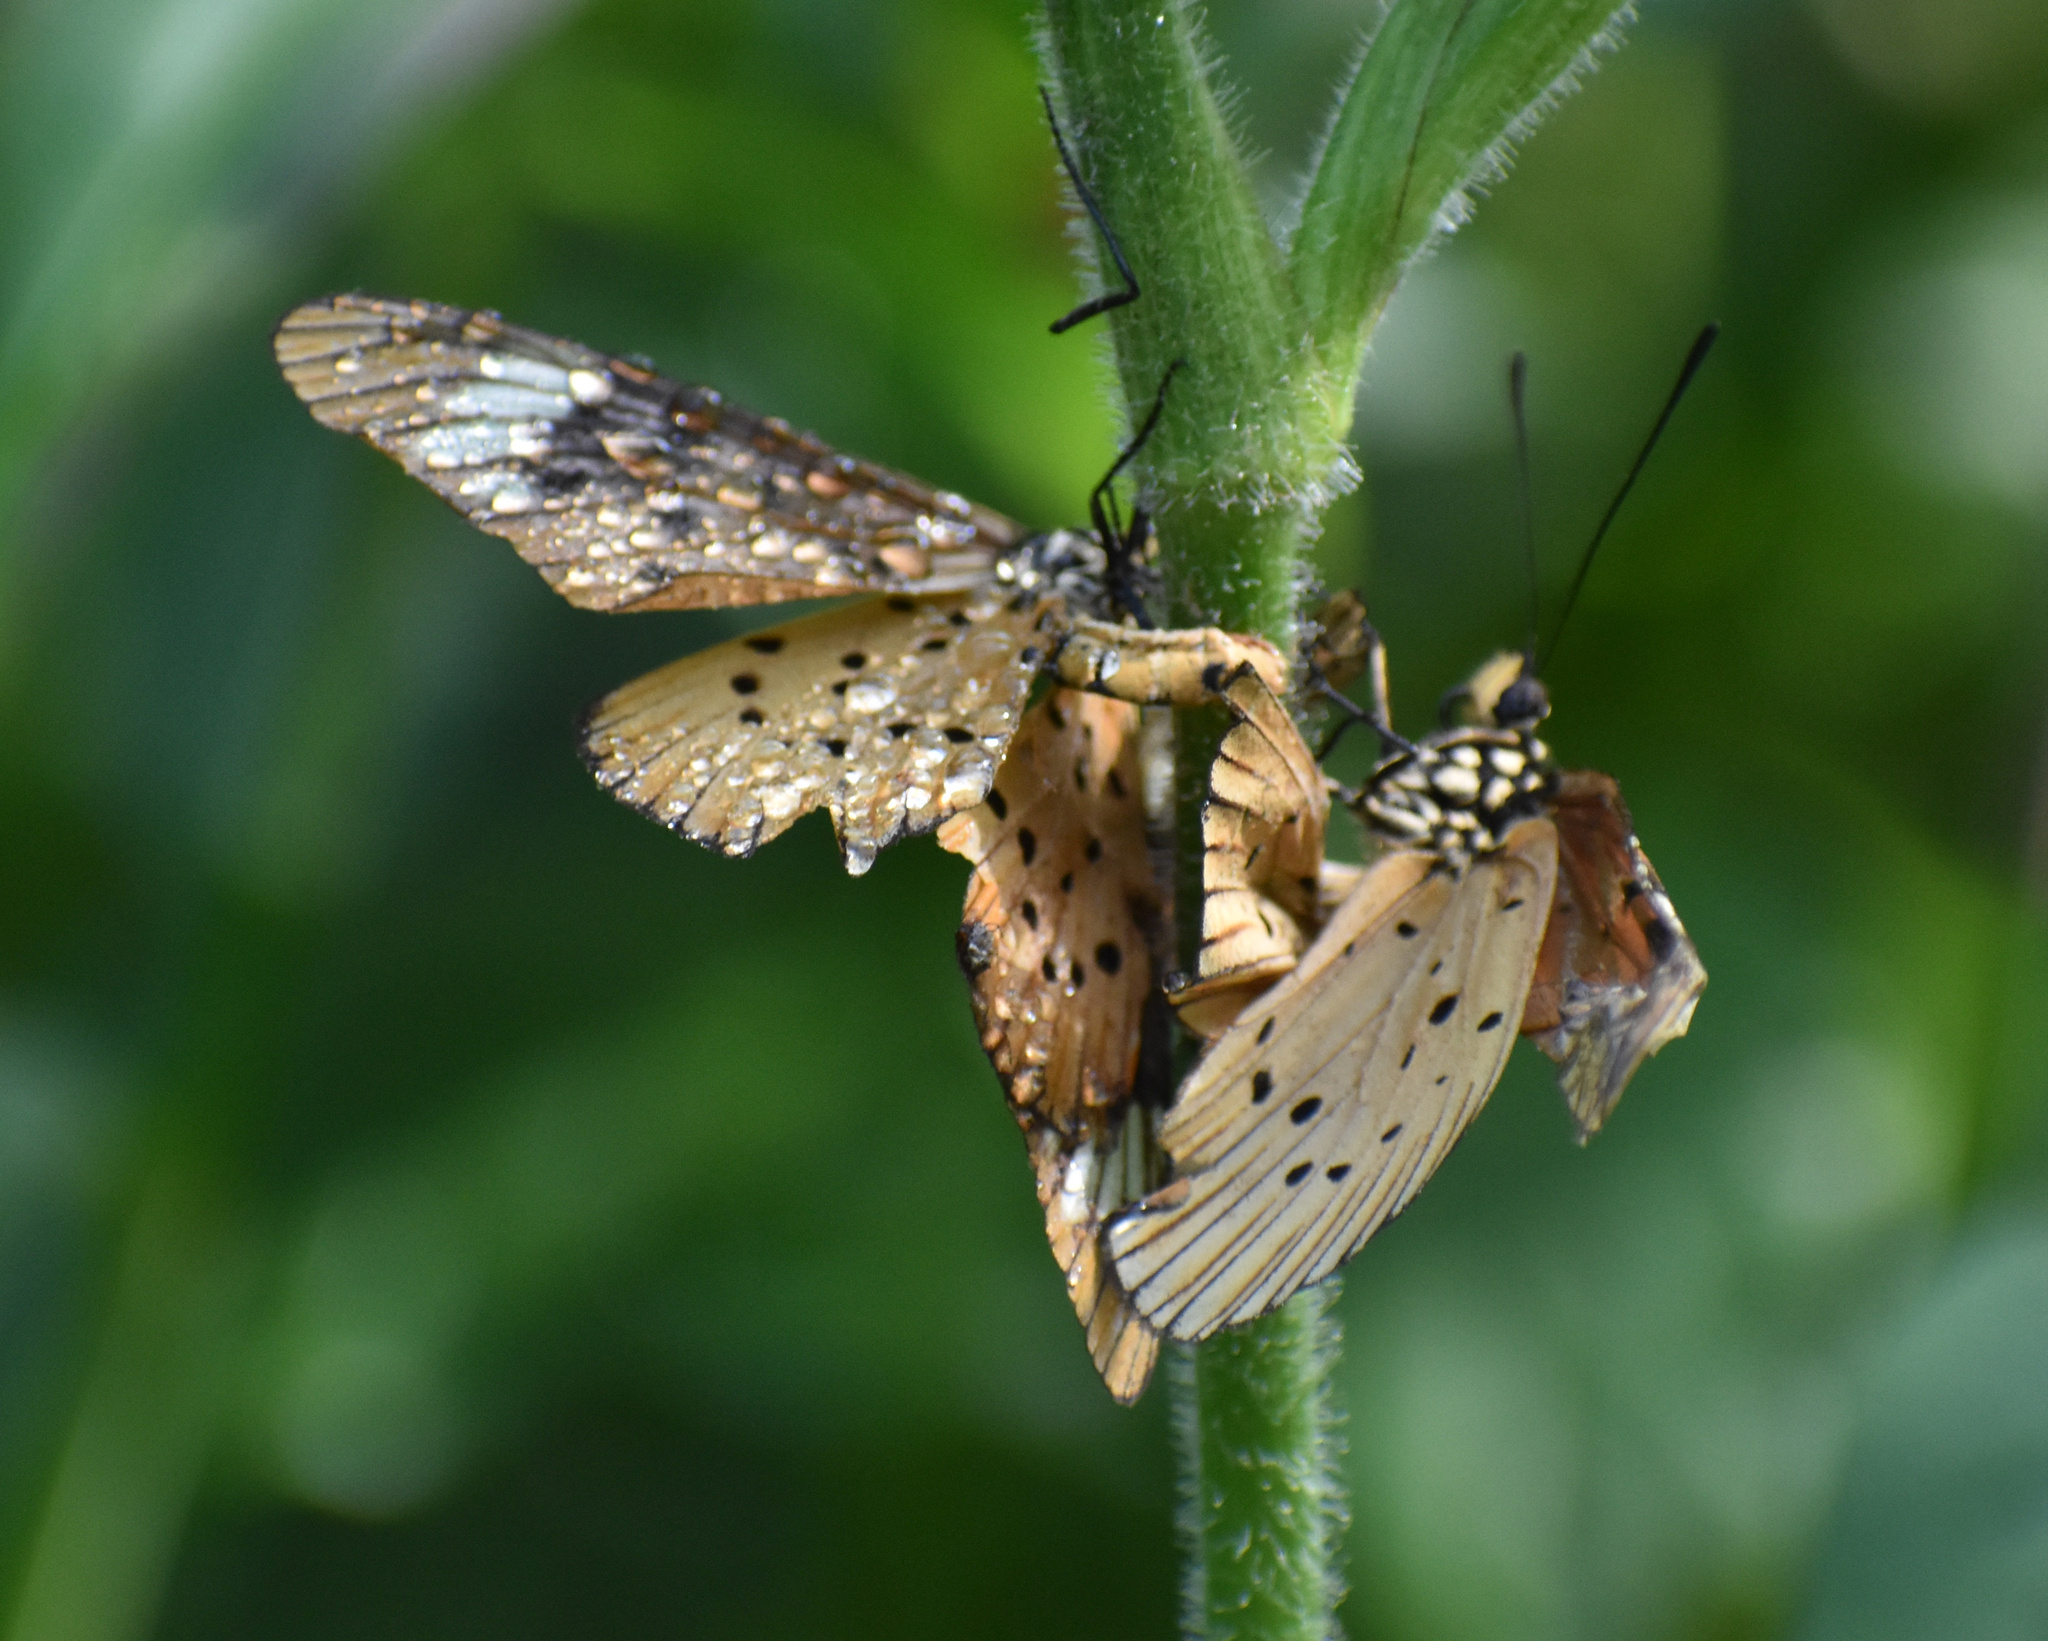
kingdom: Animalia
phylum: Arthropoda
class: Insecta
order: Lepidoptera
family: Nymphalidae
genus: Acraea
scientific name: Acraea Telchinia encedon
